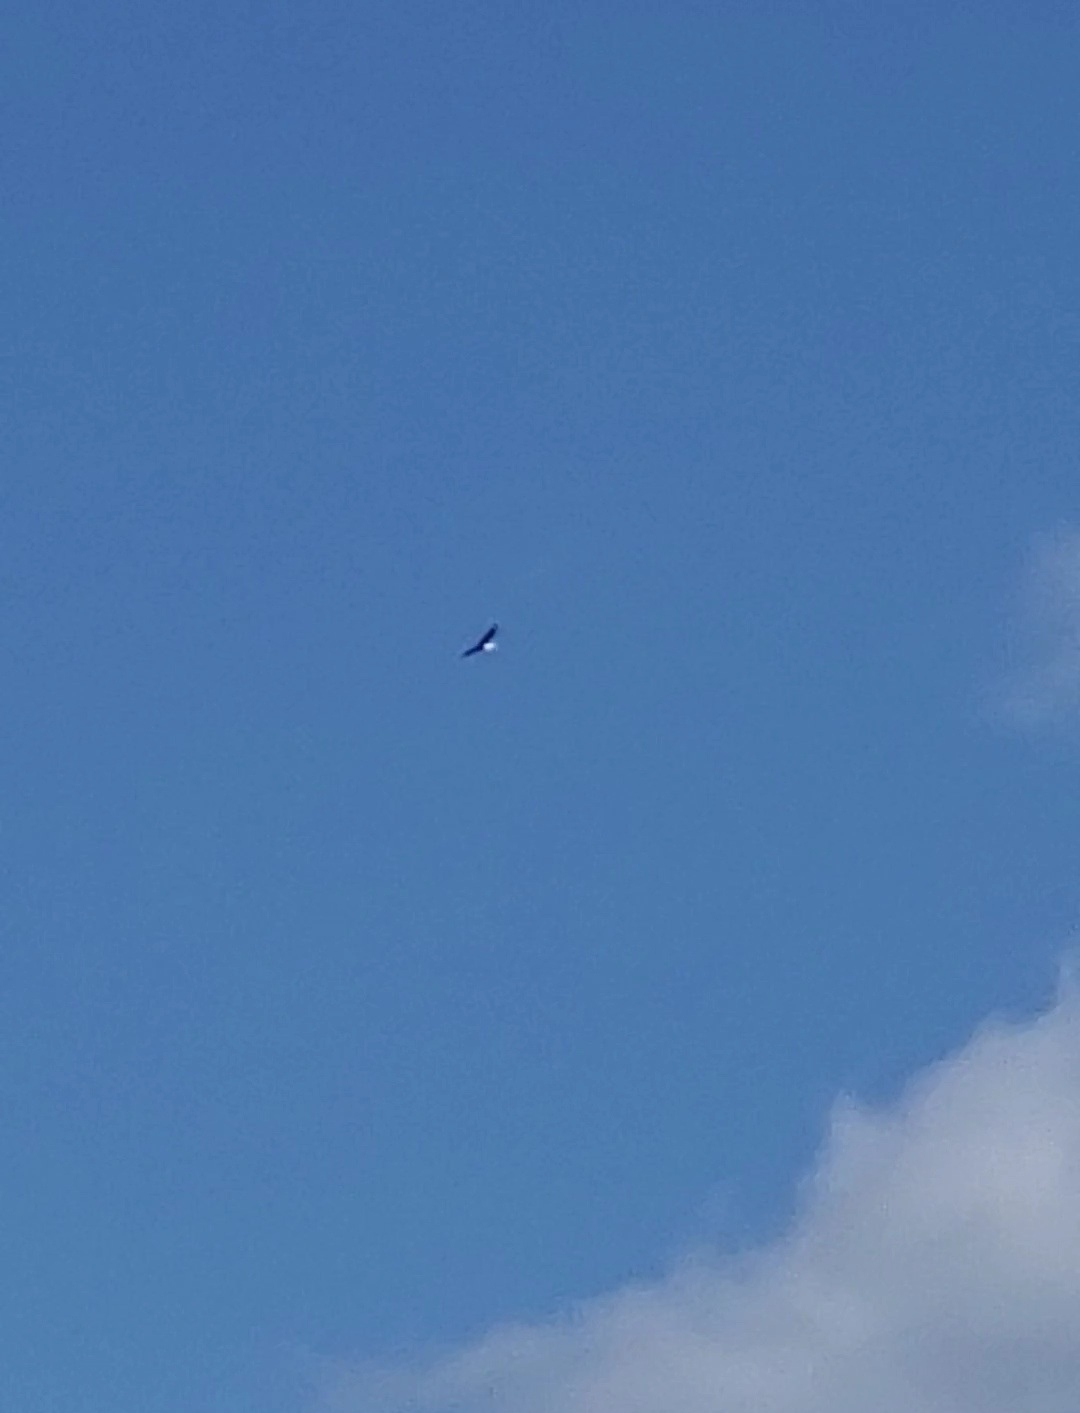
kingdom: Animalia
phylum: Chordata
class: Aves
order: Accipitriformes
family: Accipitridae
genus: Haliaeetus
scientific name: Haliaeetus leucocephalus
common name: Bald eagle
